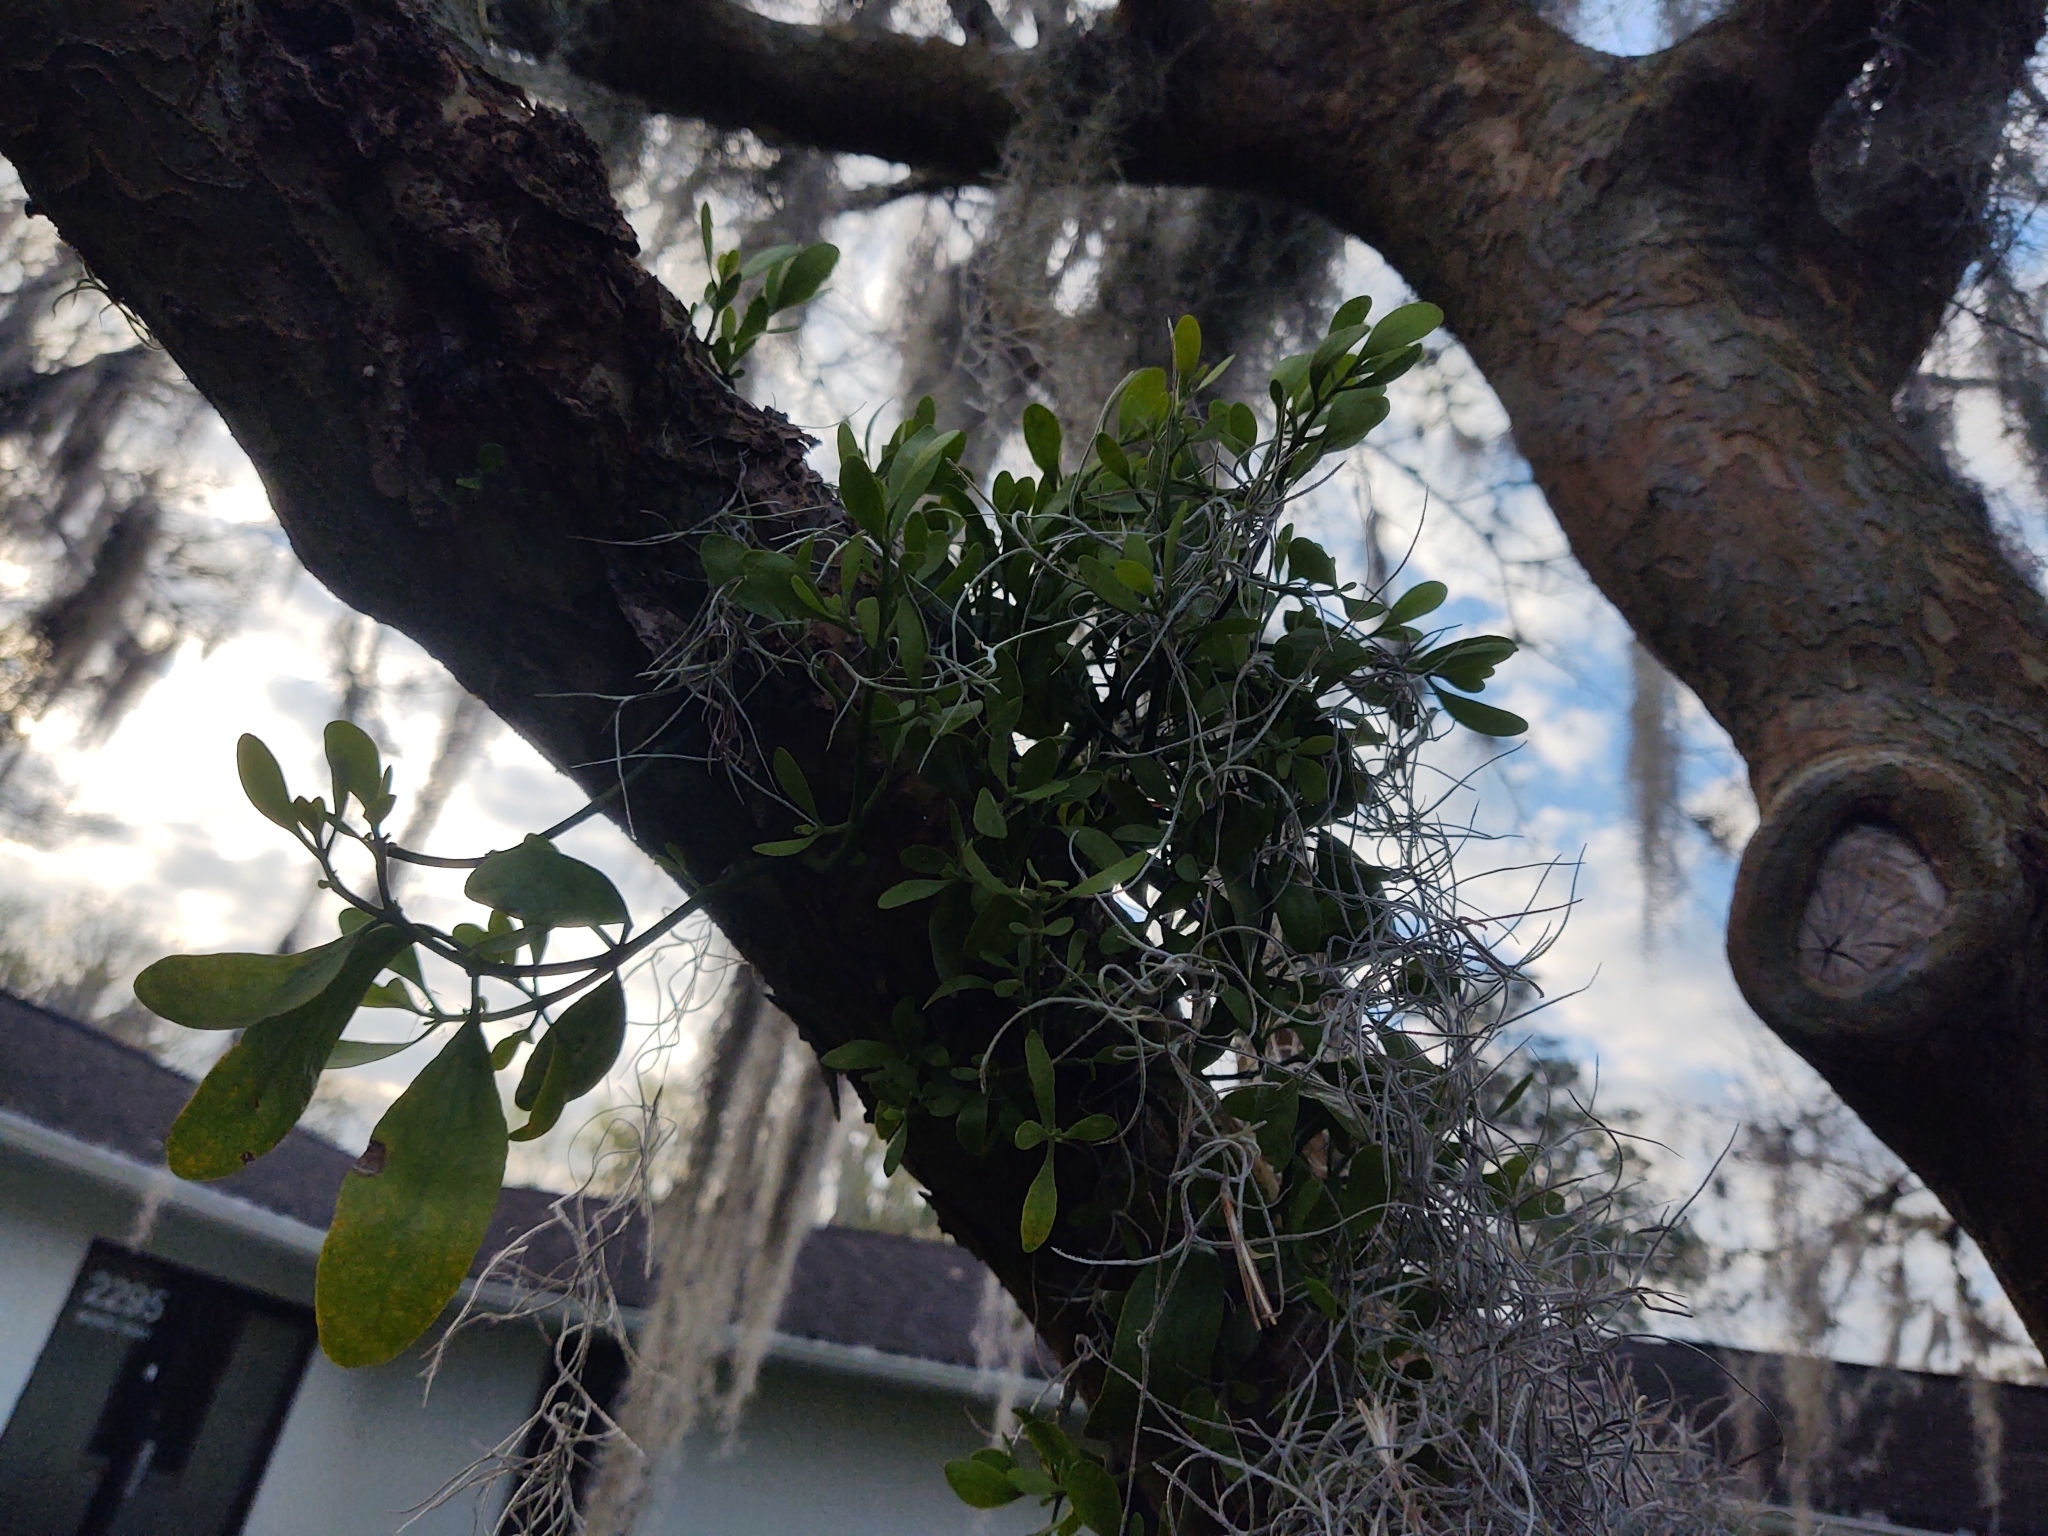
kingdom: Plantae
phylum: Tracheophyta
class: Magnoliopsida
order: Santalales
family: Viscaceae
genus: Phoradendron
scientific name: Phoradendron leucarpum
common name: Pacific mistletoe
